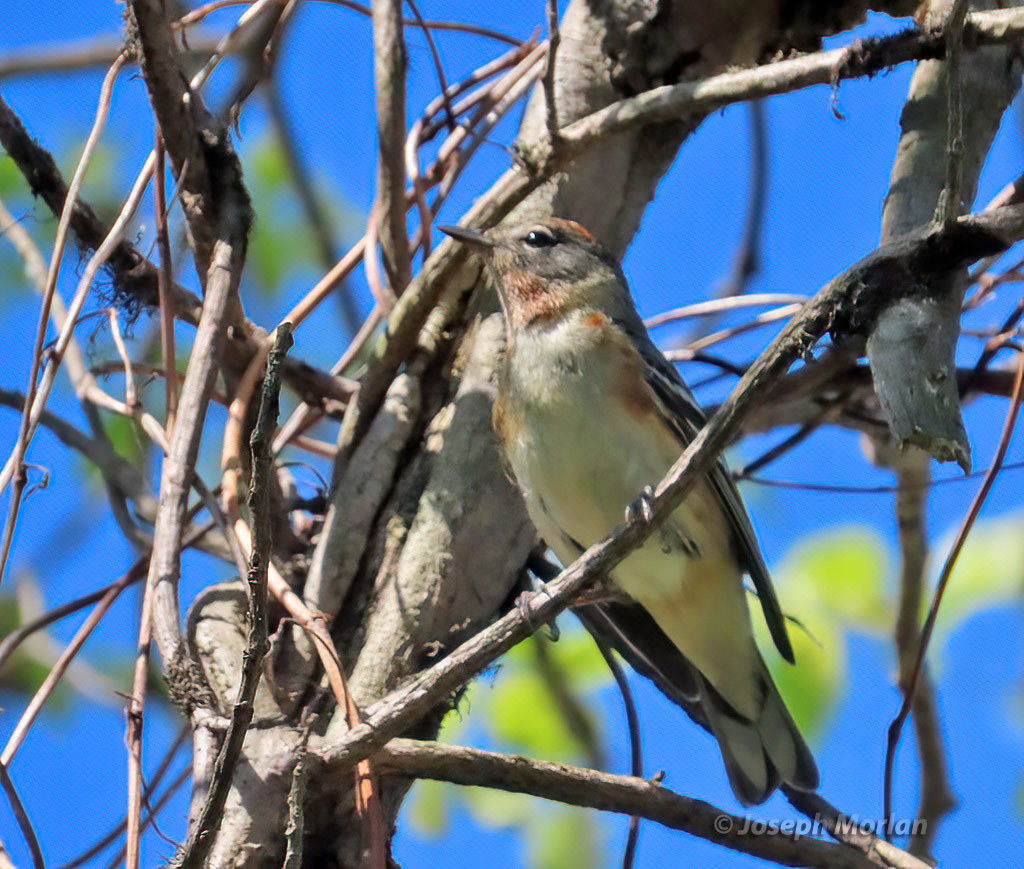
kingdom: Animalia
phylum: Chordata
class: Aves
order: Passeriformes
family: Parulidae
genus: Setophaga
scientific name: Setophaga castanea
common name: Bay-breasted warbler
